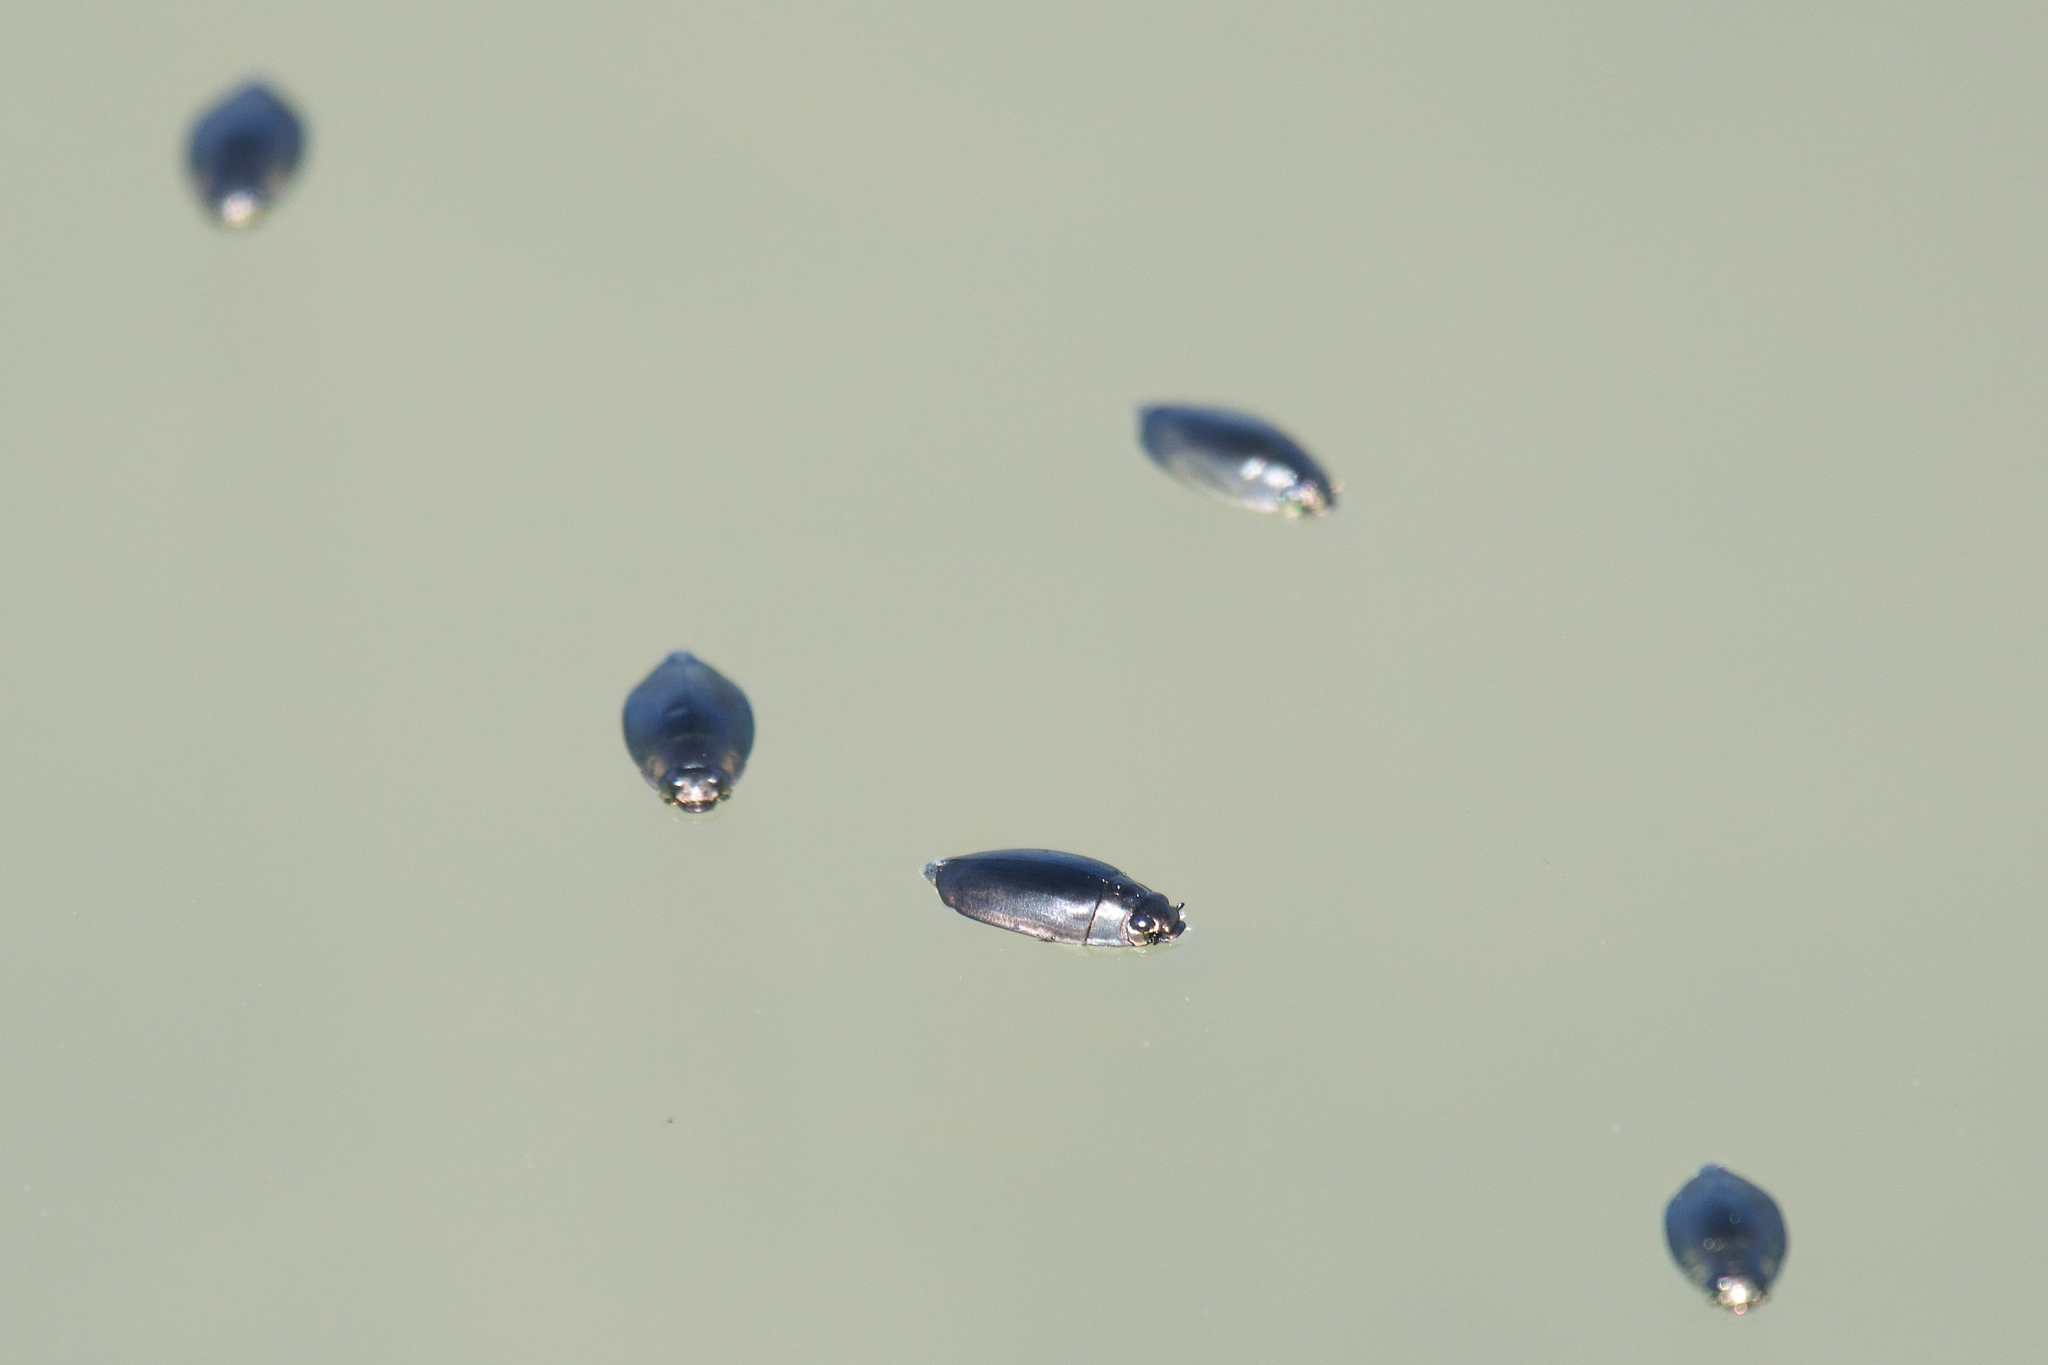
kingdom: Animalia
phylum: Arthropoda
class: Insecta
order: Coleoptera
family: Gyrinidae
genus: Dineutus
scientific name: Dineutus
